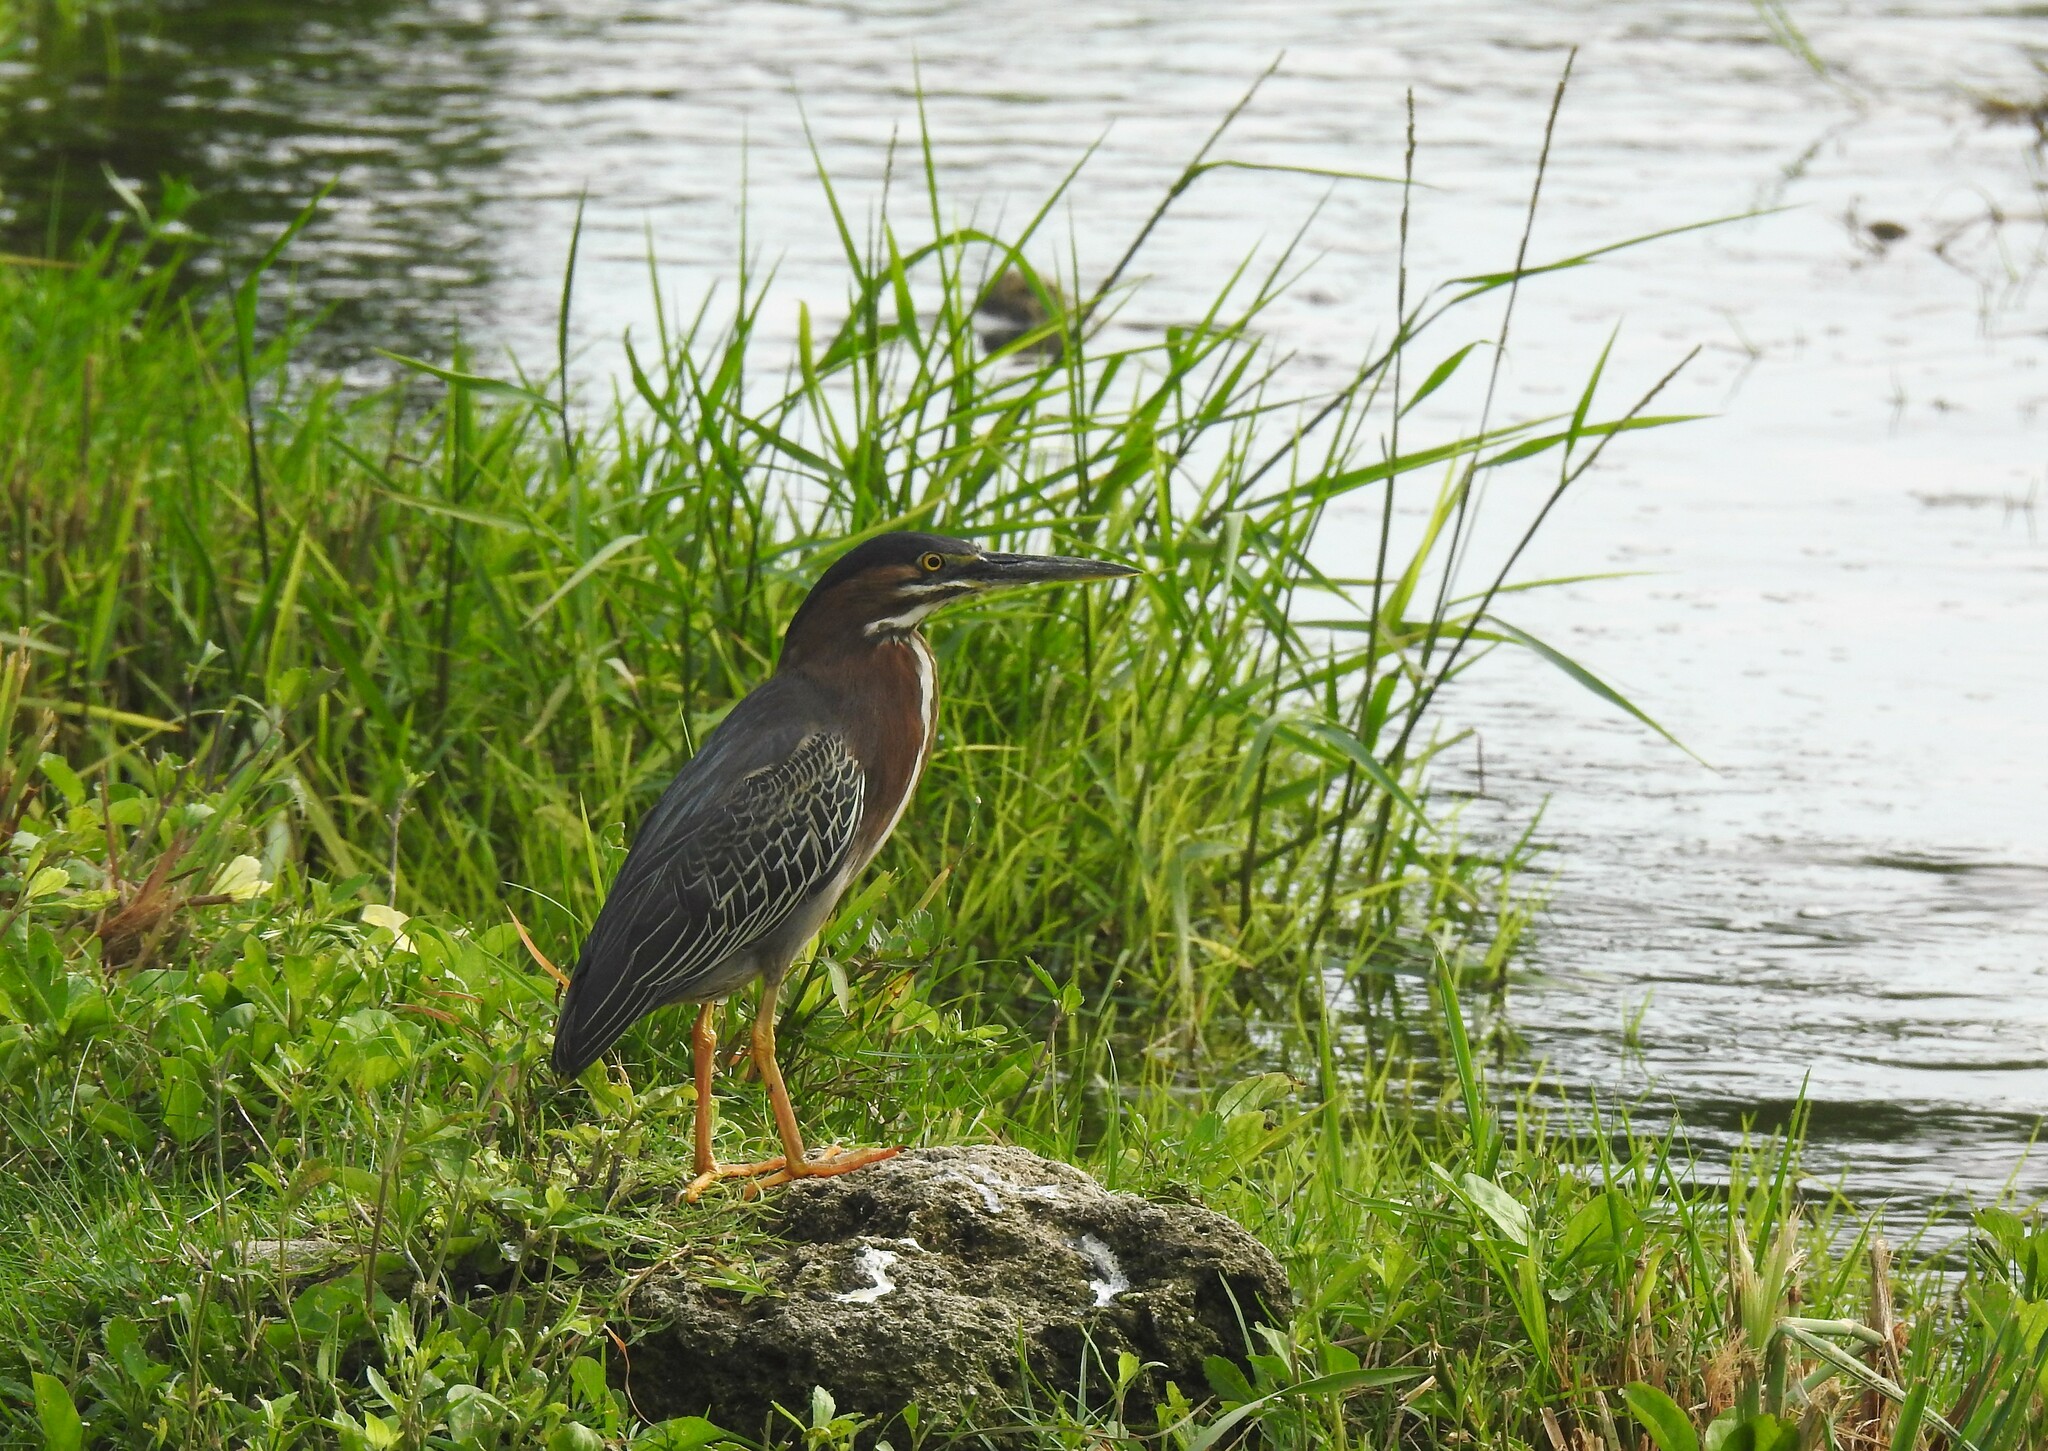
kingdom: Animalia
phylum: Chordata
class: Aves
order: Pelecaniformes
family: Ardeidae
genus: Butorides
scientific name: Butorides virescens
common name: Green heron
